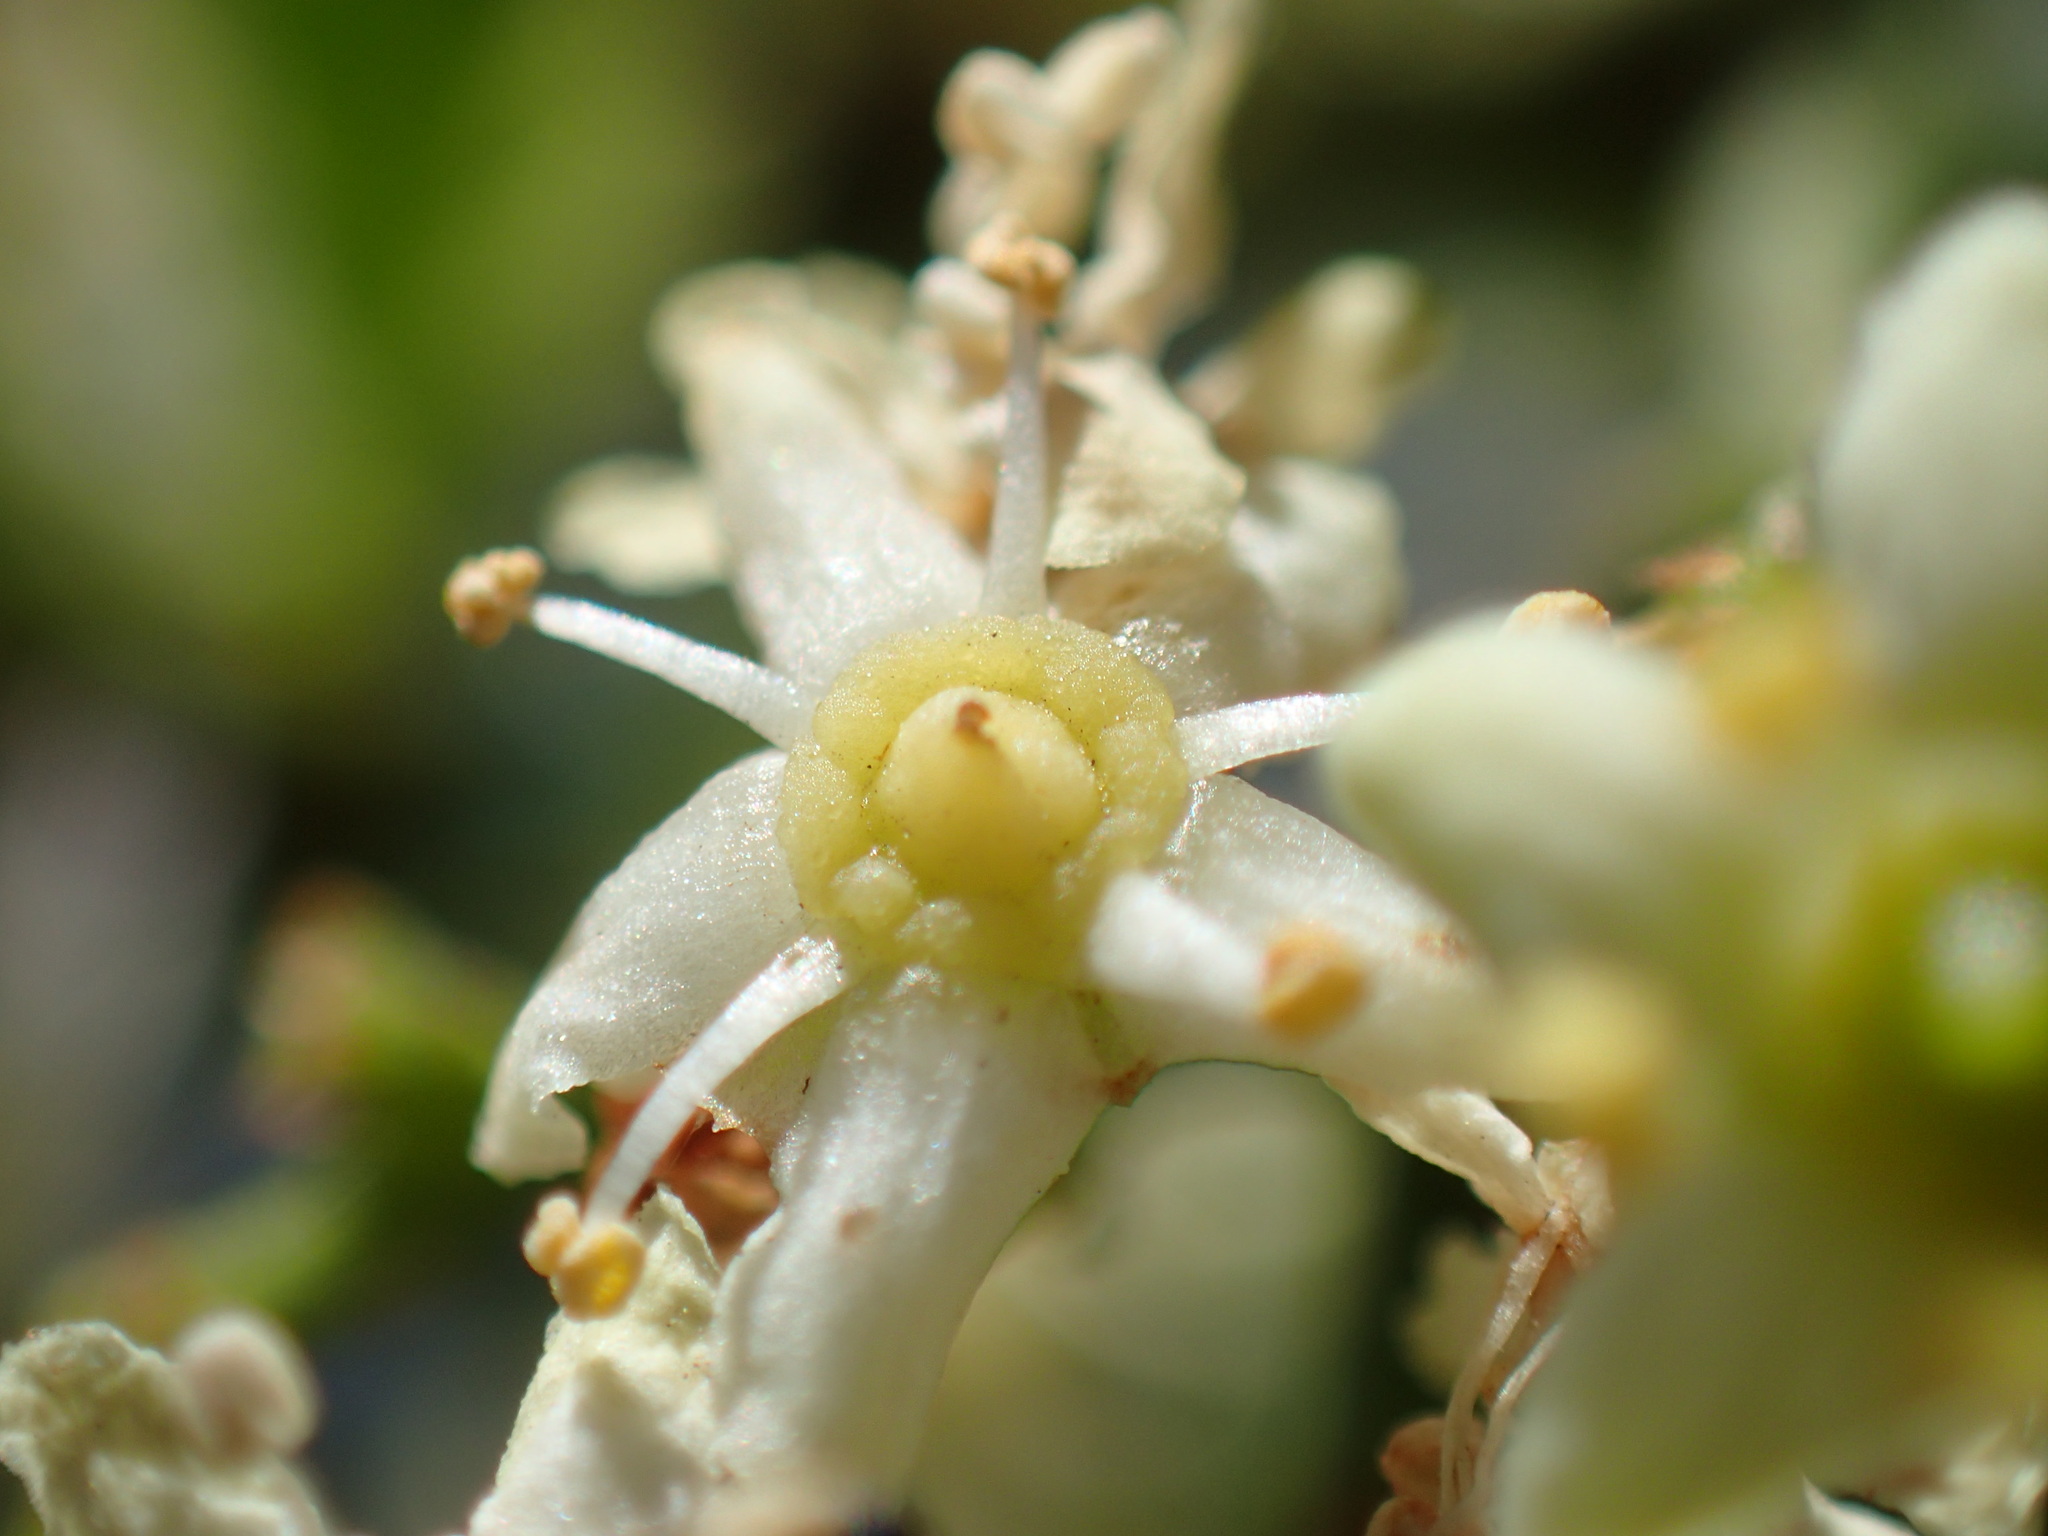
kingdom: Plantae
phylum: Tracheophyta
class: Magnoliopsida
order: Celastrales
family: Celastraceae
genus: Gymnosporia
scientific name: Gymnosporia buxifolia
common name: Common spike-thorn
